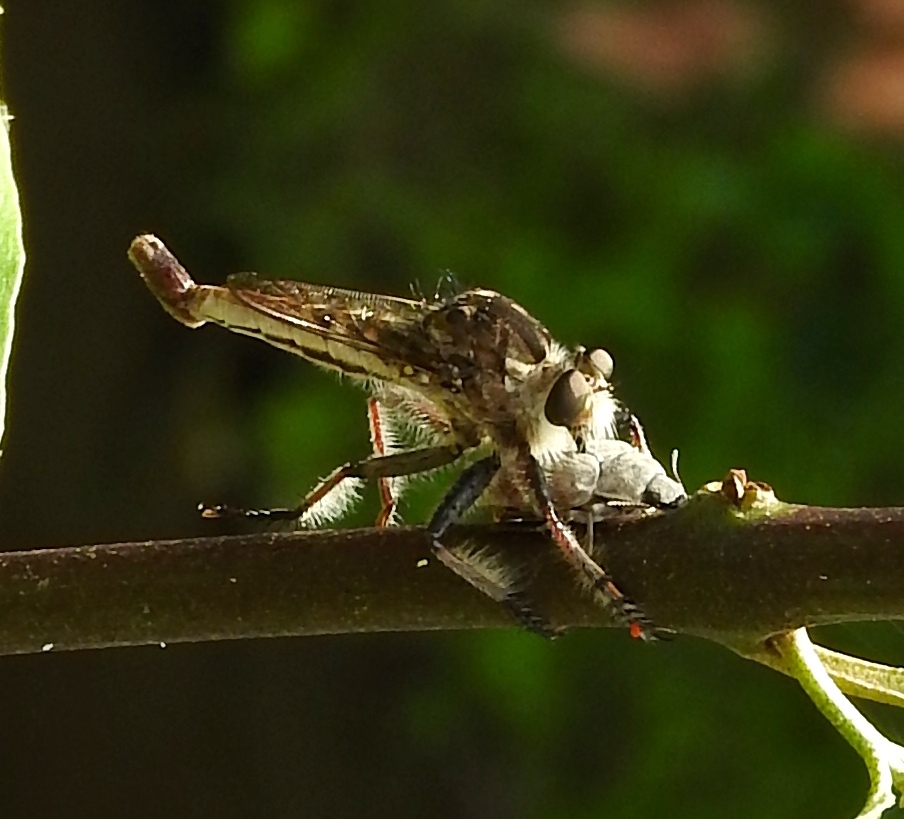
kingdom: Animalia
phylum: Arthropoda
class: Insecta
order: Diptera
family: Asilidae
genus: Efferia
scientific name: Efferia
